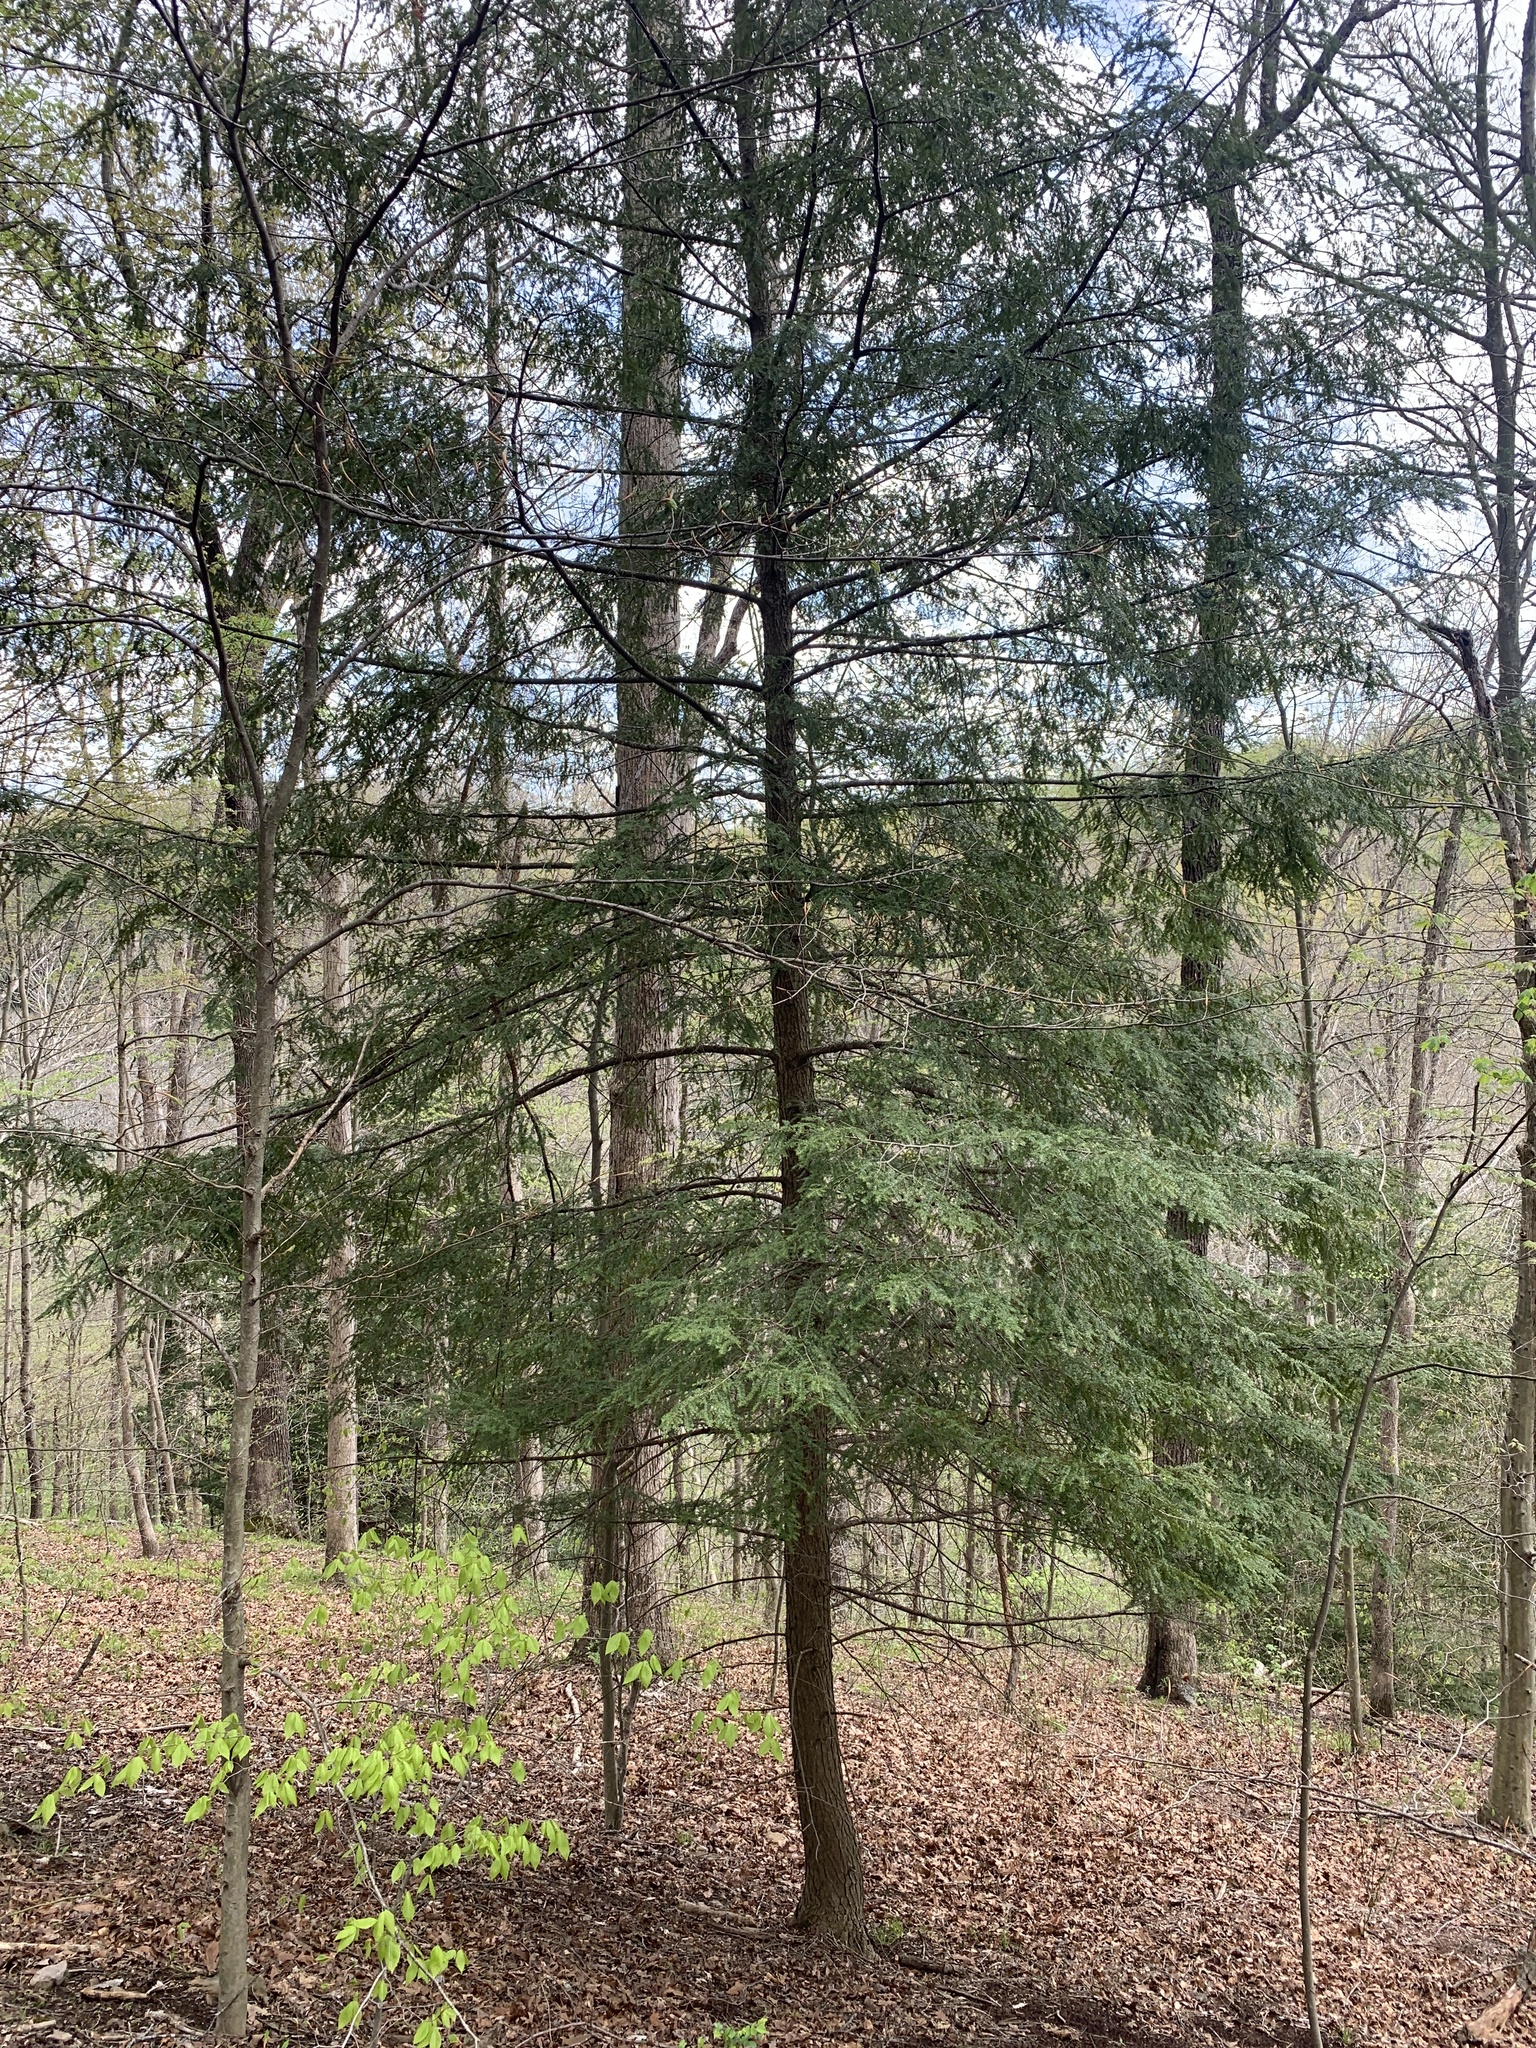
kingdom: Plantae
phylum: Tracheophyta
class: Pinopsida
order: Pinales
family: Pinaceae
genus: Tsuga
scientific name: Tsuga canadensis
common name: Eastern hemlock
